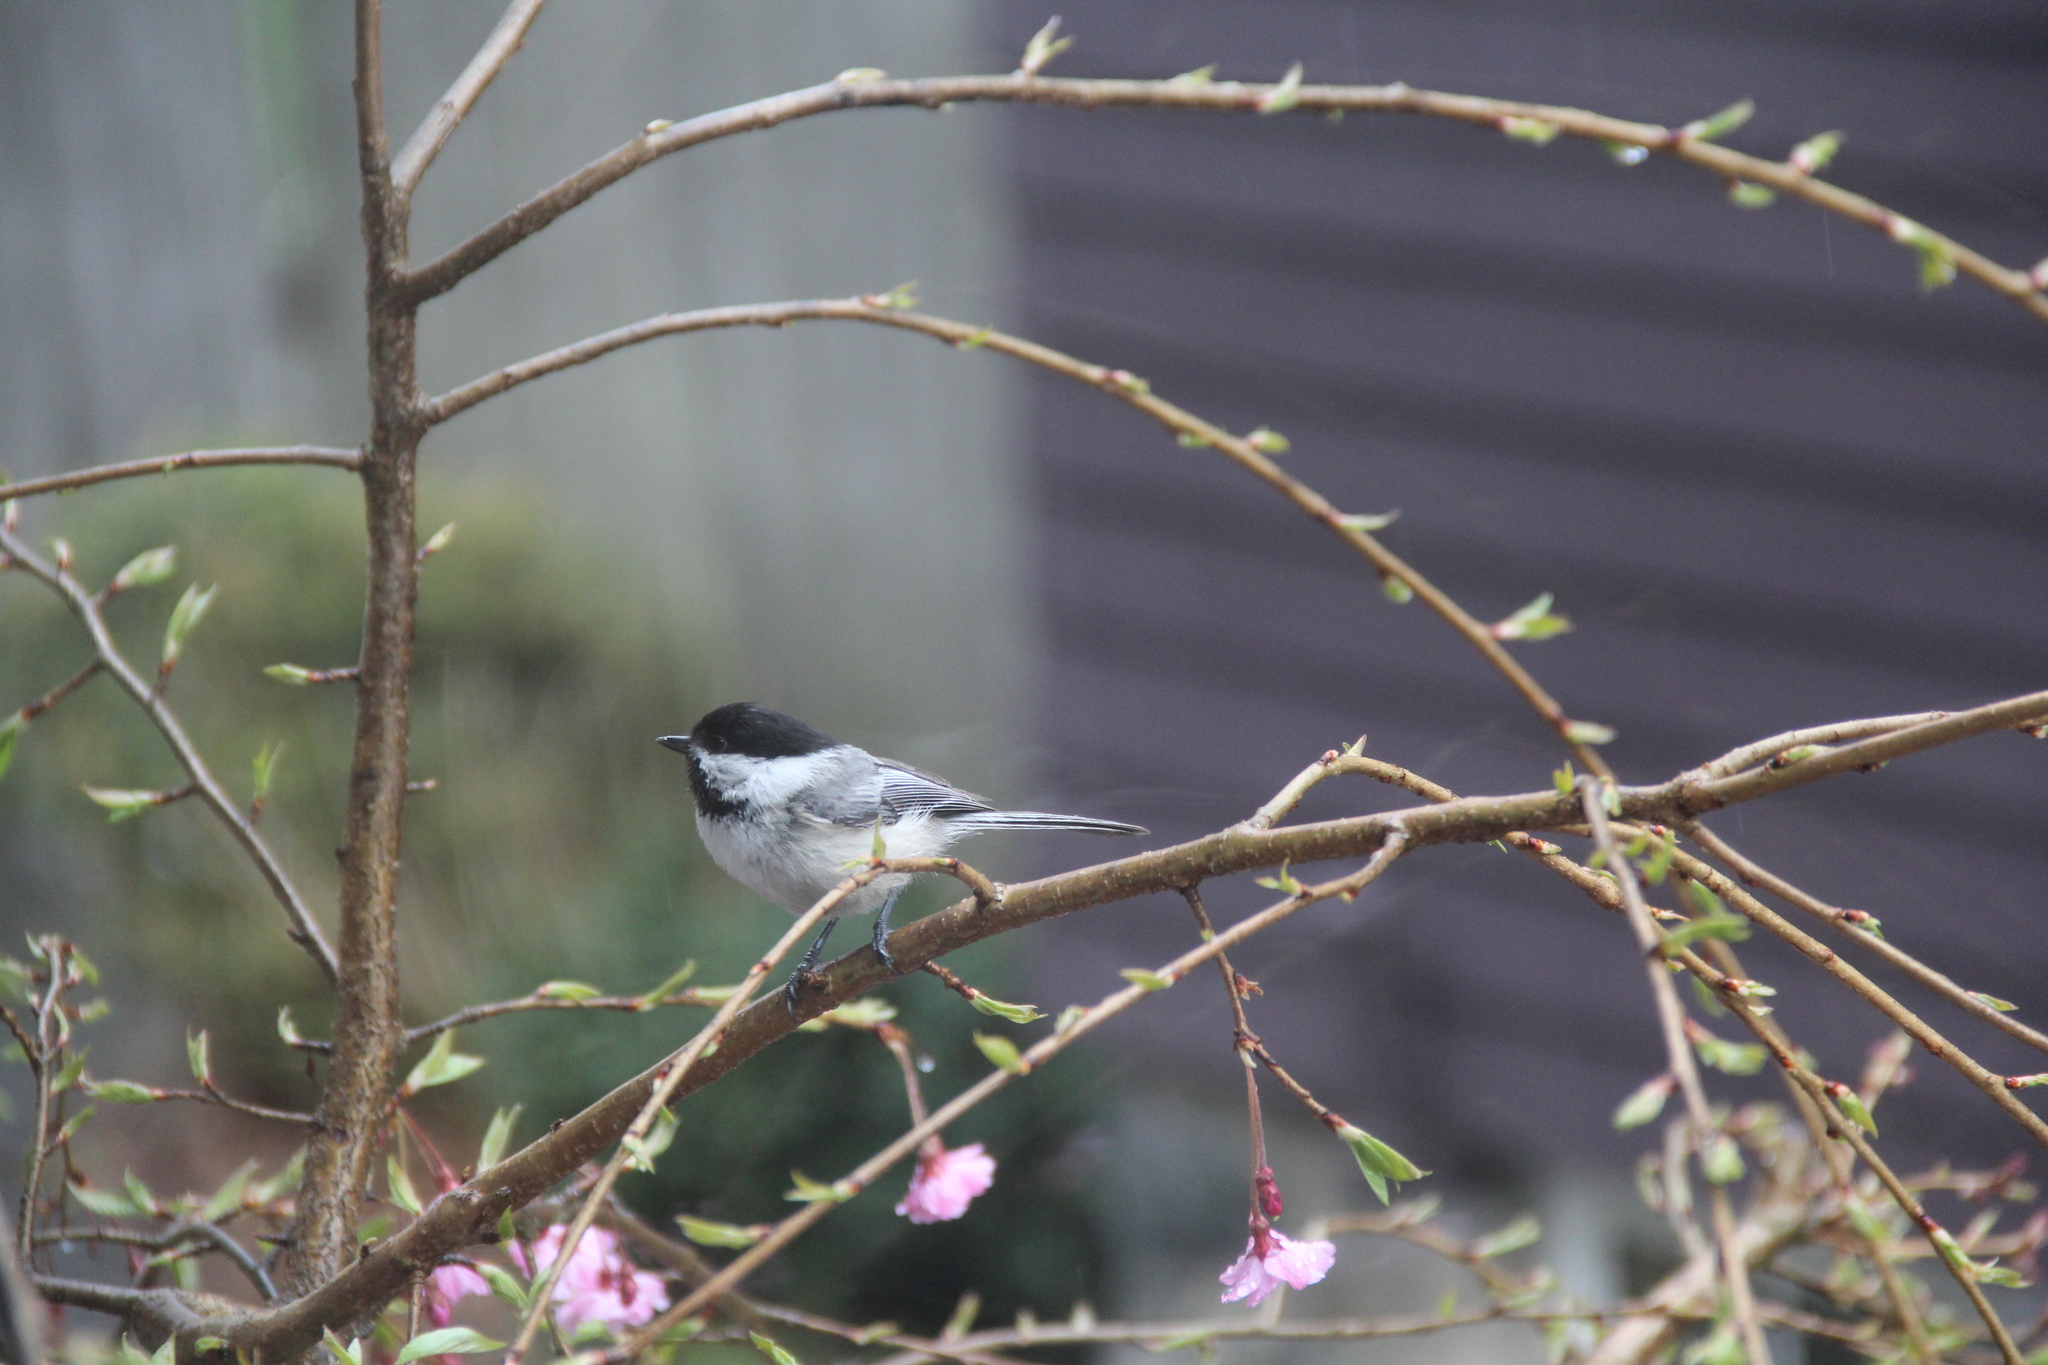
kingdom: Animalia
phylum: Chordata
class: Aves
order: Passeriformes
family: Paridae
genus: Poecile
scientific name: Poecile atricapillus
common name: Black-capped chickadee
